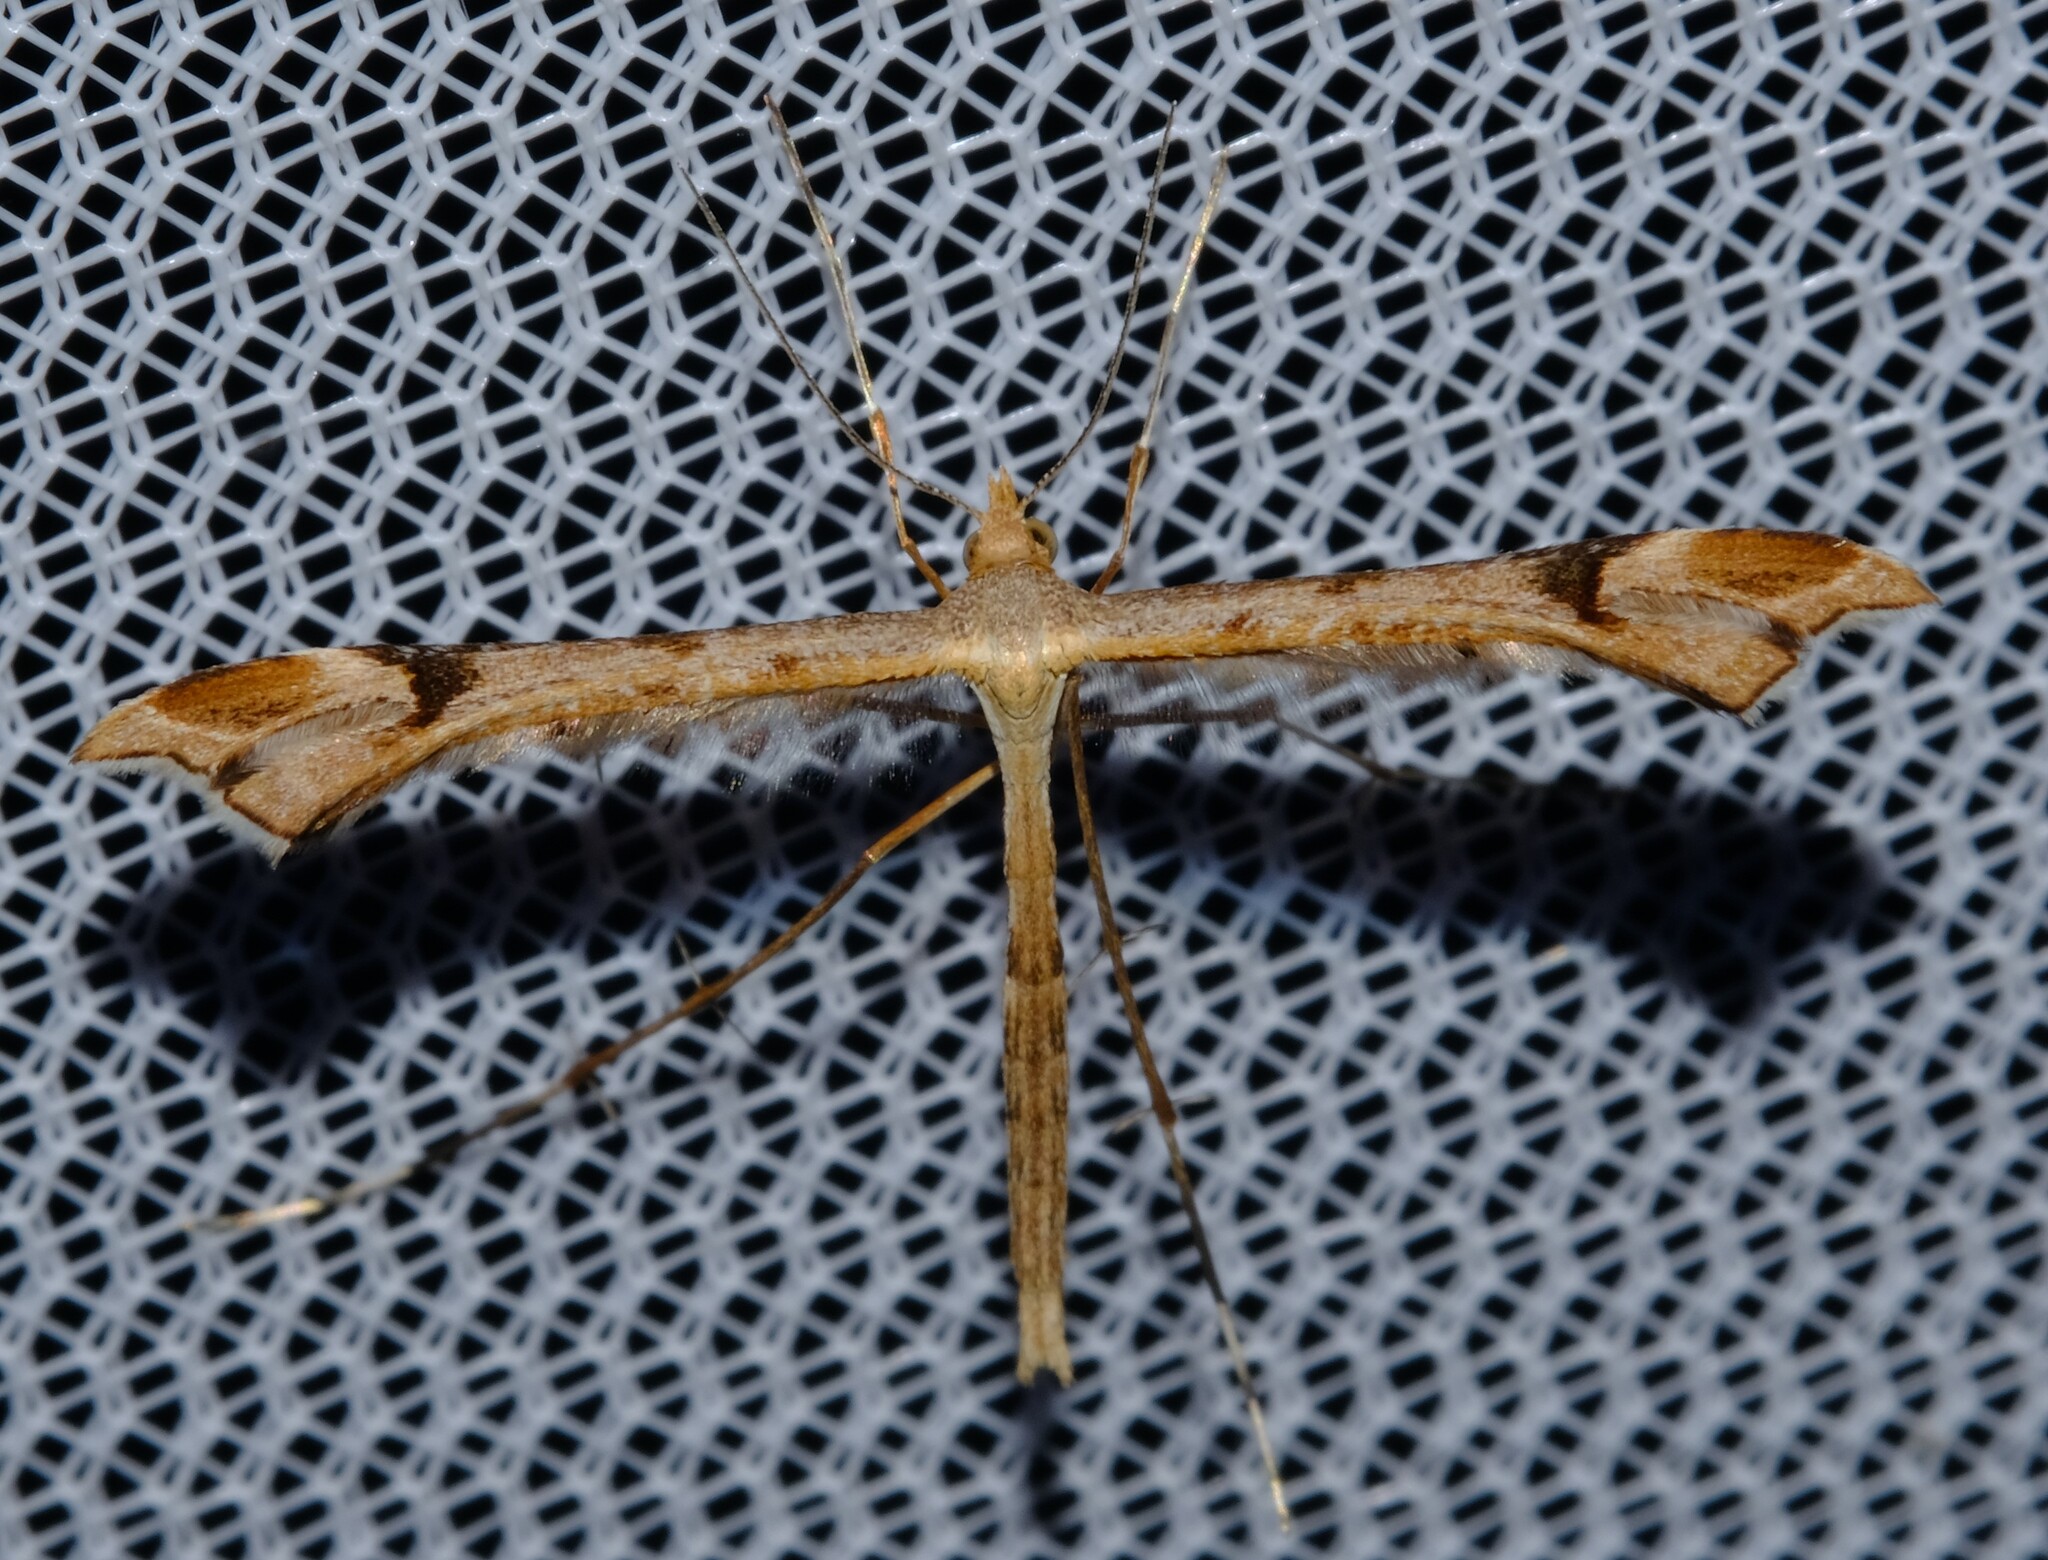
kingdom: Animalia
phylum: Arthropoda
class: Insecta
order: Lepidoptera
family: Pterophoridae
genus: Sinpunctiptilia
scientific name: Sinpunctiptilia emissalis
